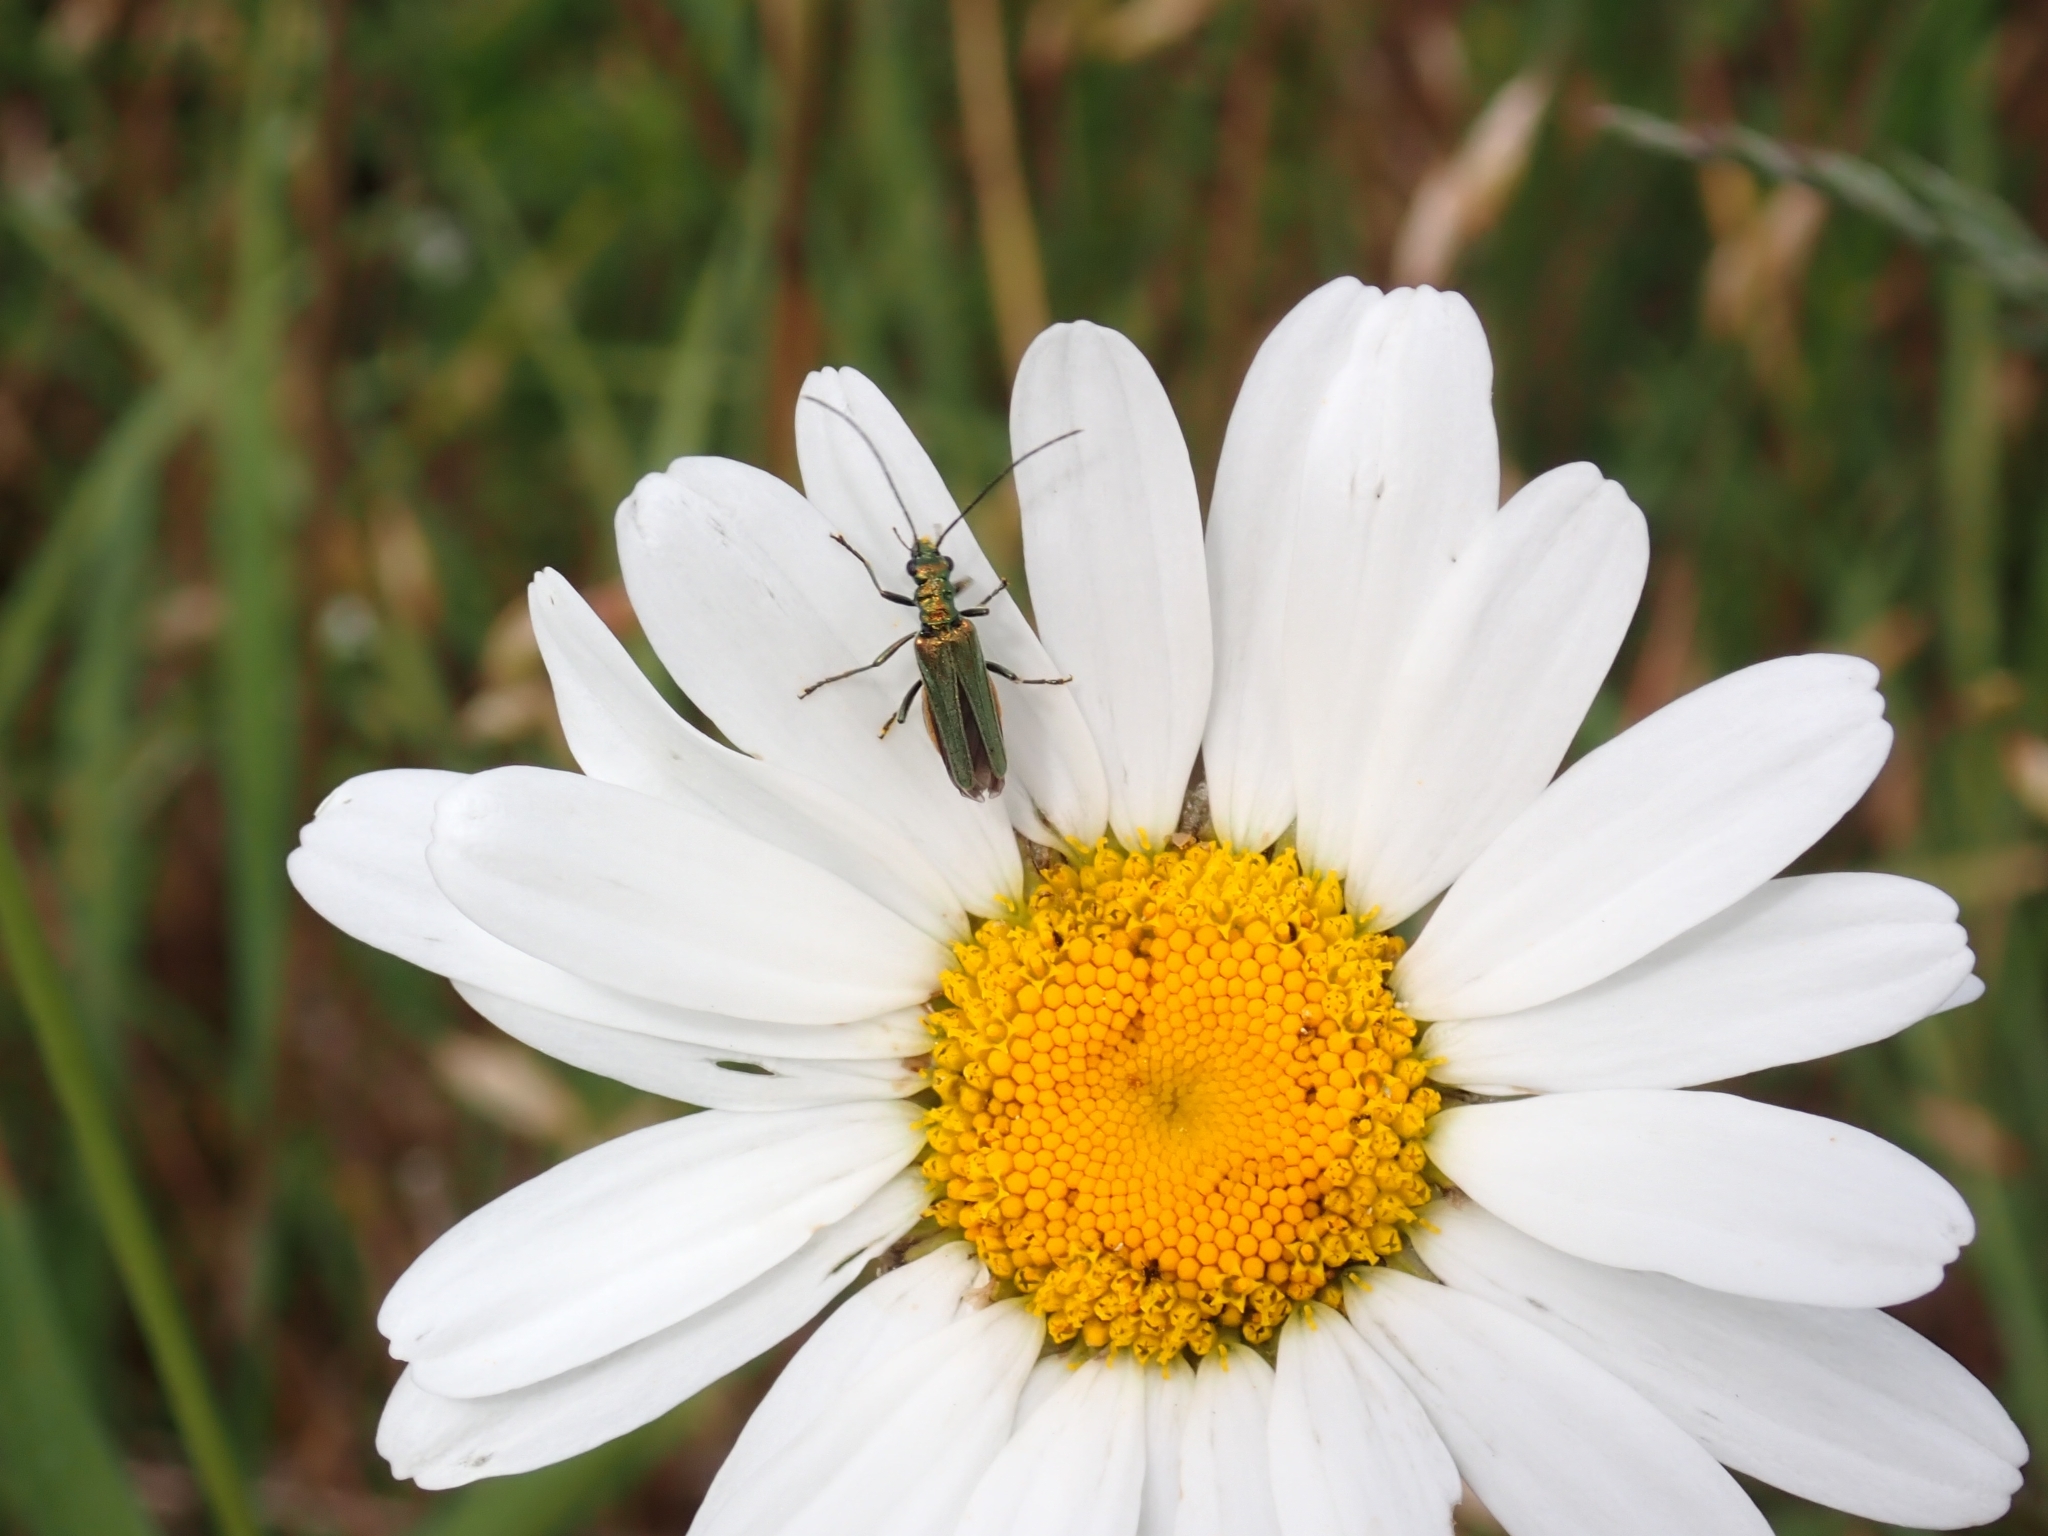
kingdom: Animalia
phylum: Arthropoda
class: Insecta
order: Coleoptera
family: Oedemeridae
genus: Oedemera
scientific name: Oedemera nobilis
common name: Swollen-thighed beetle
